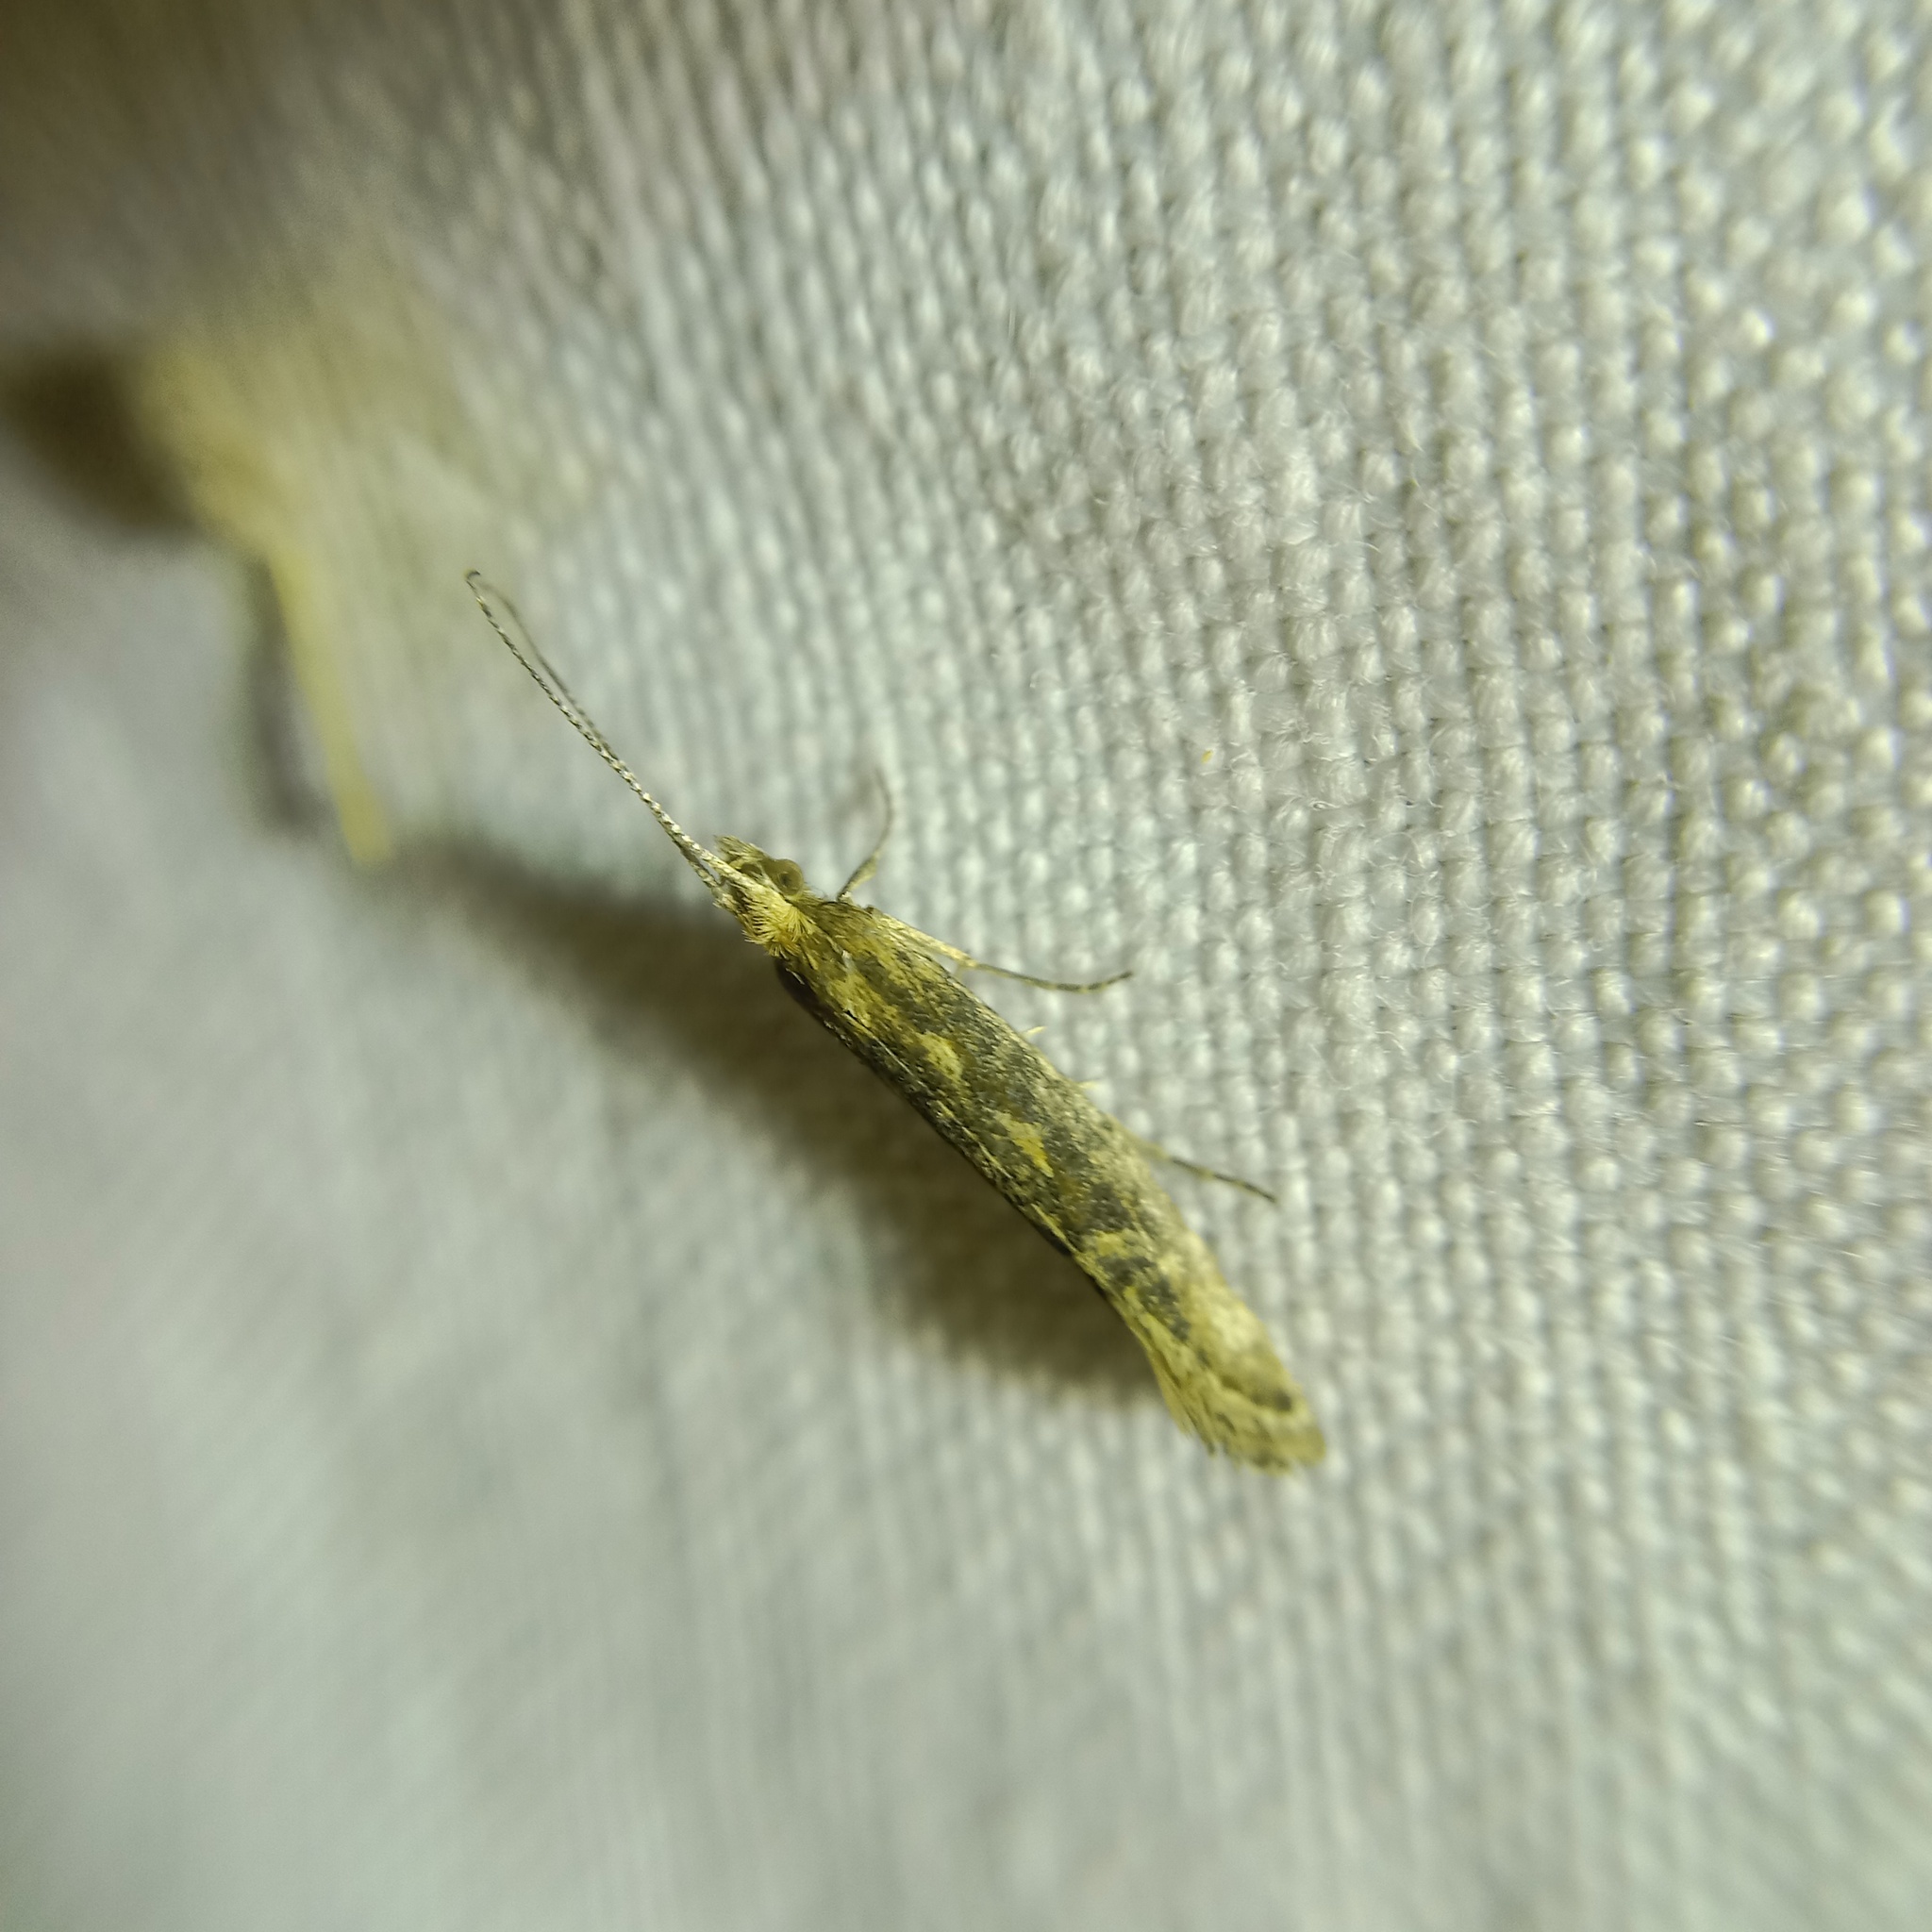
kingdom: Animalia
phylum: Arthropoda
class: Insecta
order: Lepidoptera
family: Plutellidae
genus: Plutella
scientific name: Plutella xylostella
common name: Diamond-back moth
